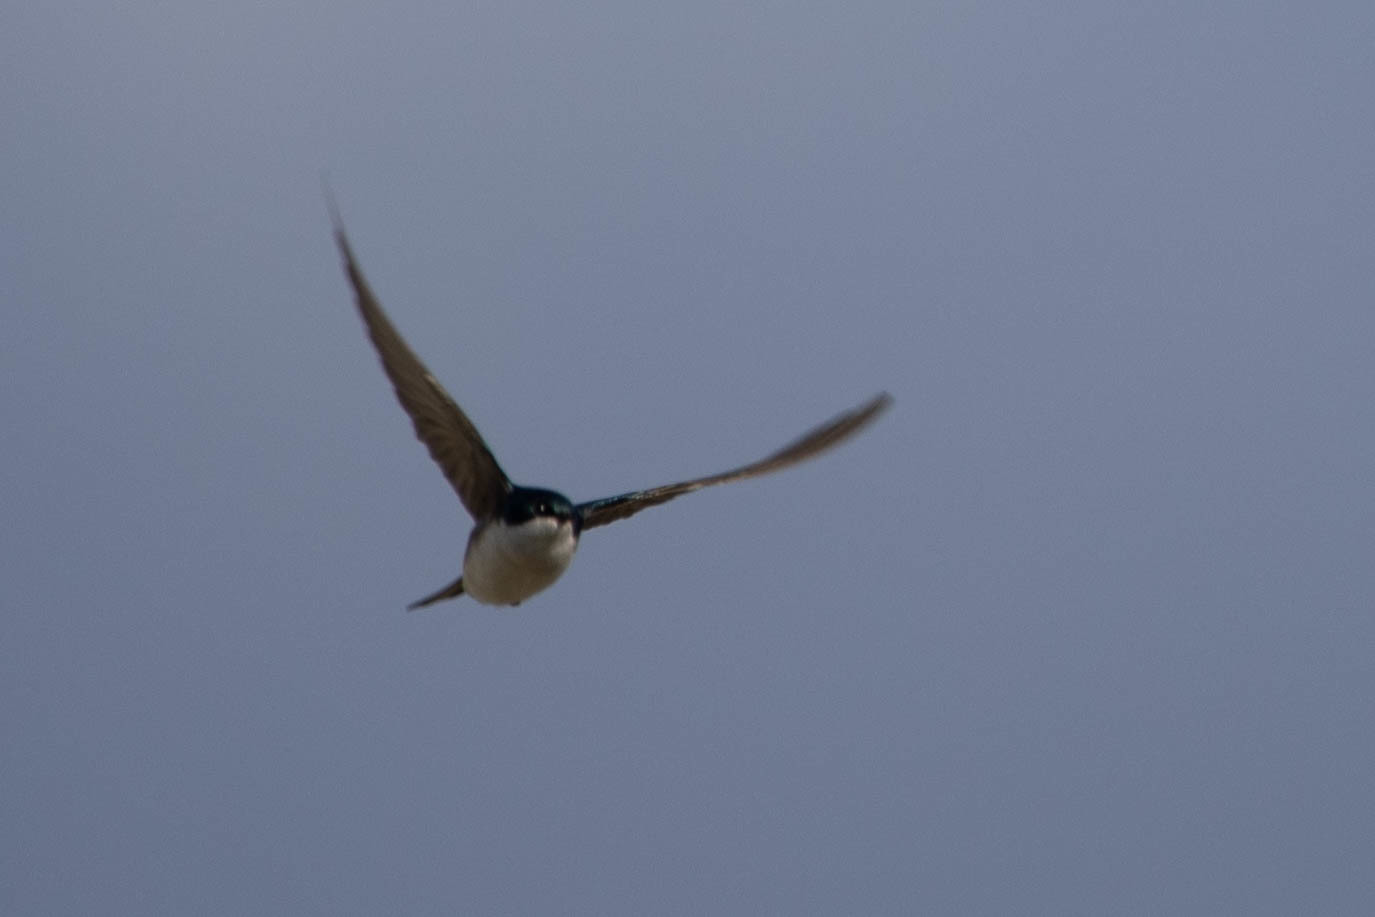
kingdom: Animalia
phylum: Chordata
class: Aves
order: Passeriformes
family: Hirundinidae
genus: Tachycineta
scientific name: Tachycineta bicolor
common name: Tree swallow
